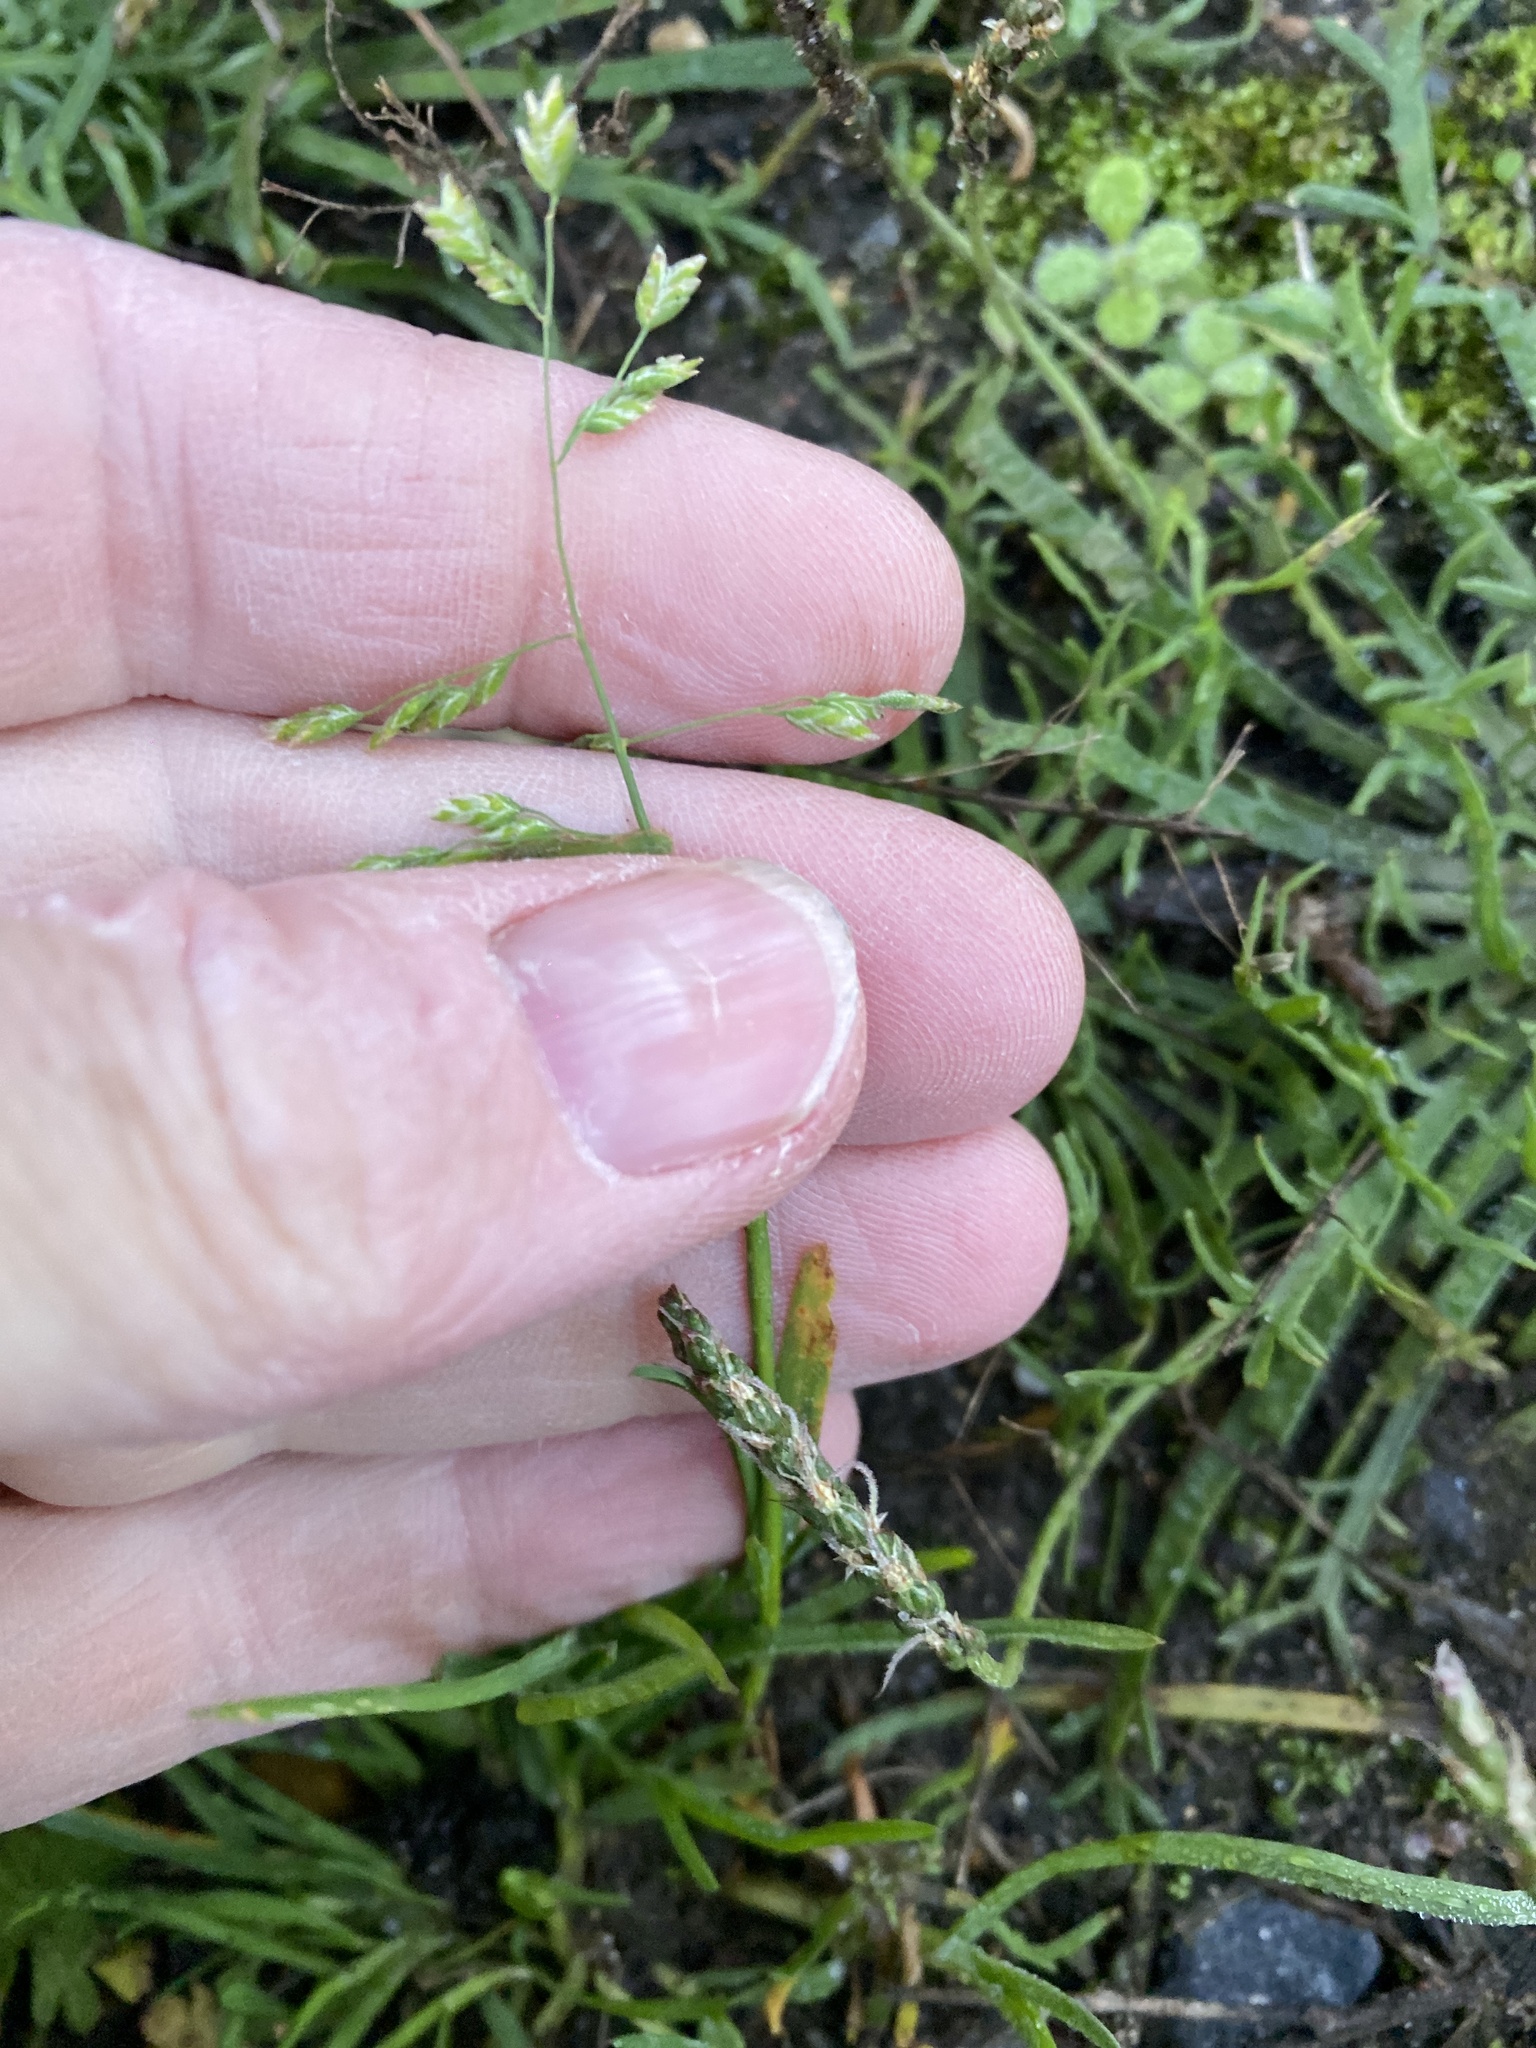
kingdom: Plantae
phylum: Tracheophyta
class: Liliopsida
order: Poales
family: Poaceae
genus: Poa
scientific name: Poa annua
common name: Annual bluegrass
